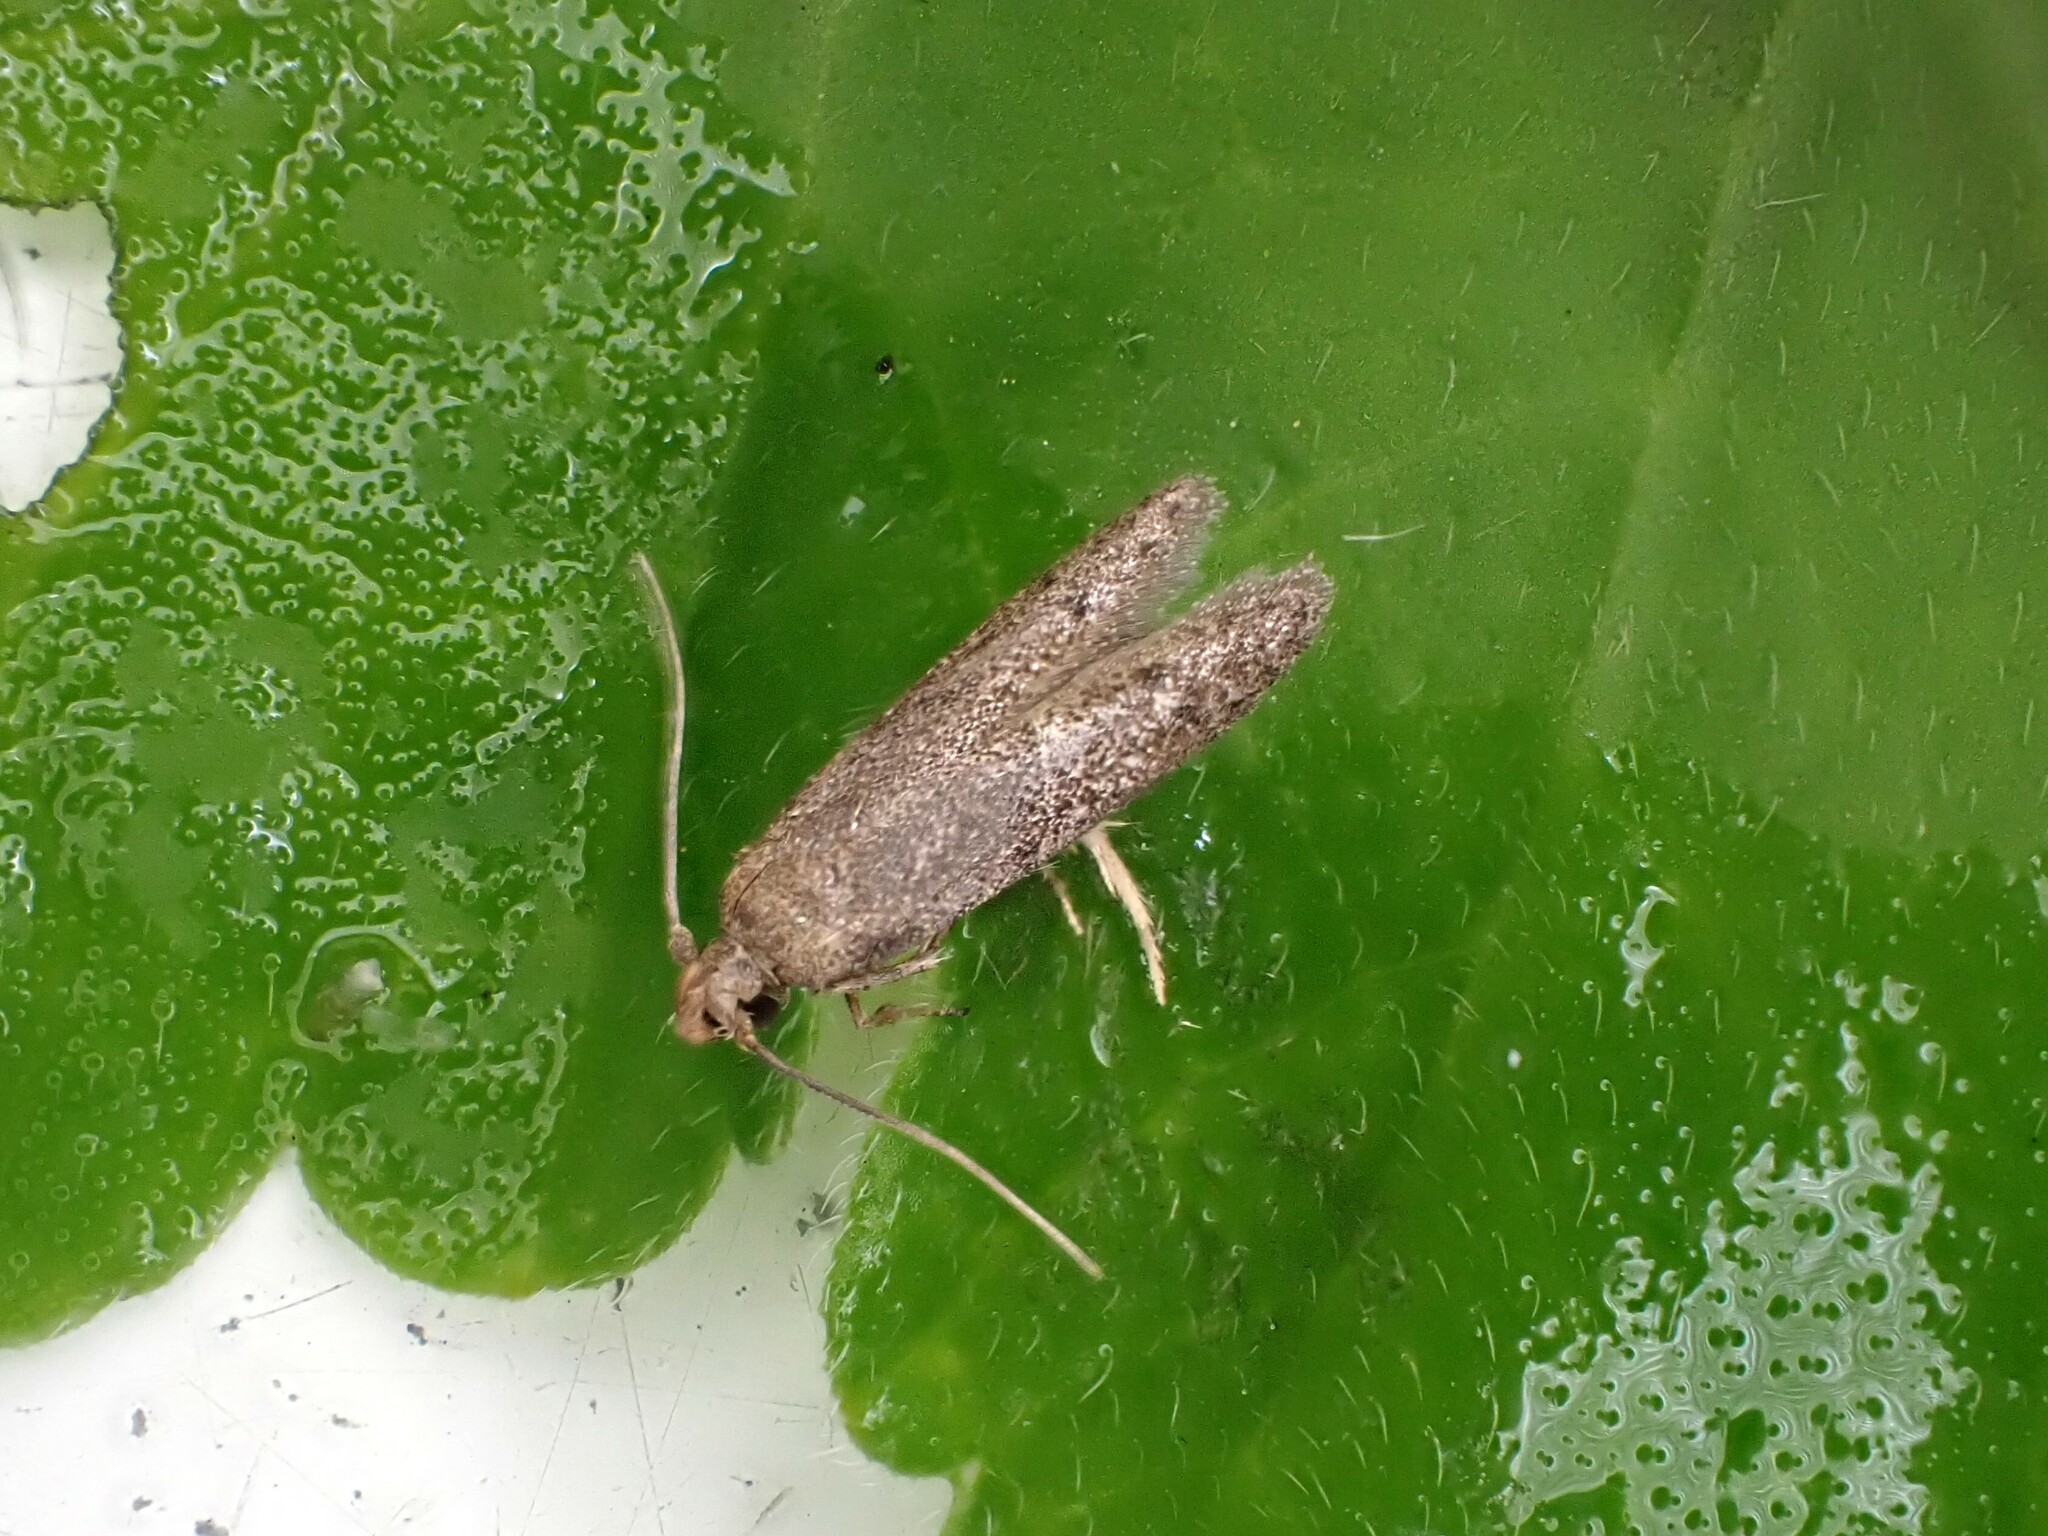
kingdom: Animalia
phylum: Arthropoda
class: Insecta
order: Lepidoptera
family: Blastobasidae
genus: Blastobasis
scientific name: Blastobasis tarda
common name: Blastobasid moth
